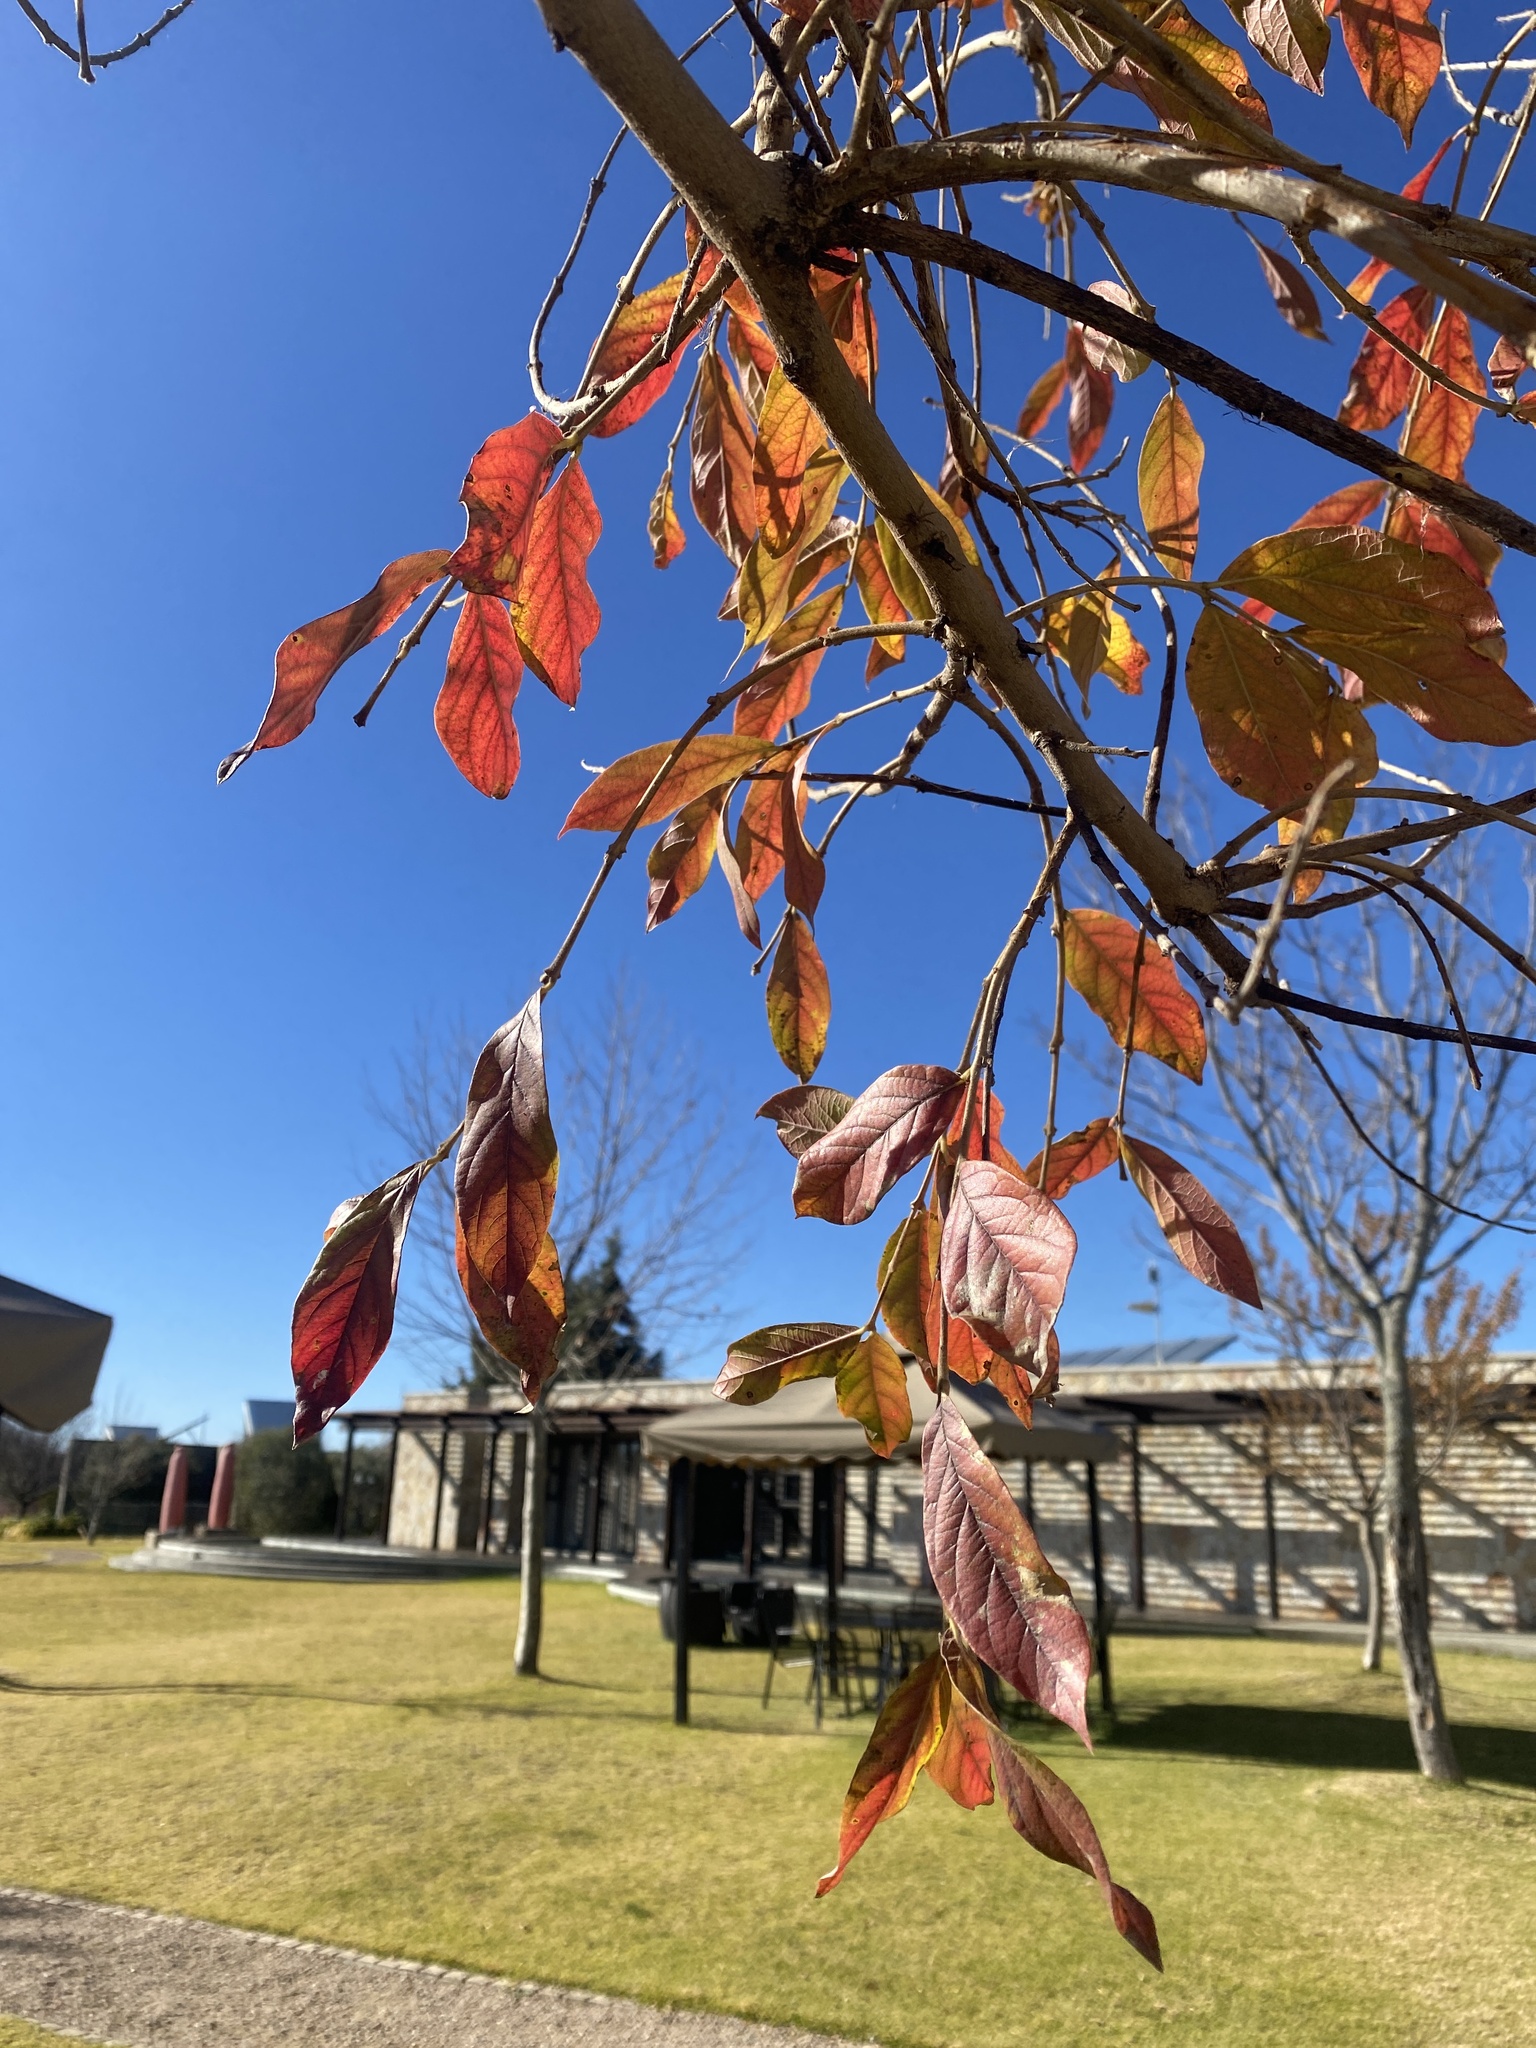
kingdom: Plantae
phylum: Tracheophyta
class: Magnoliopsida
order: Myrtales
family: Combretaceae
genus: Combretum
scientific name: Combretum erythrophyllum
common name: Bush-willow
